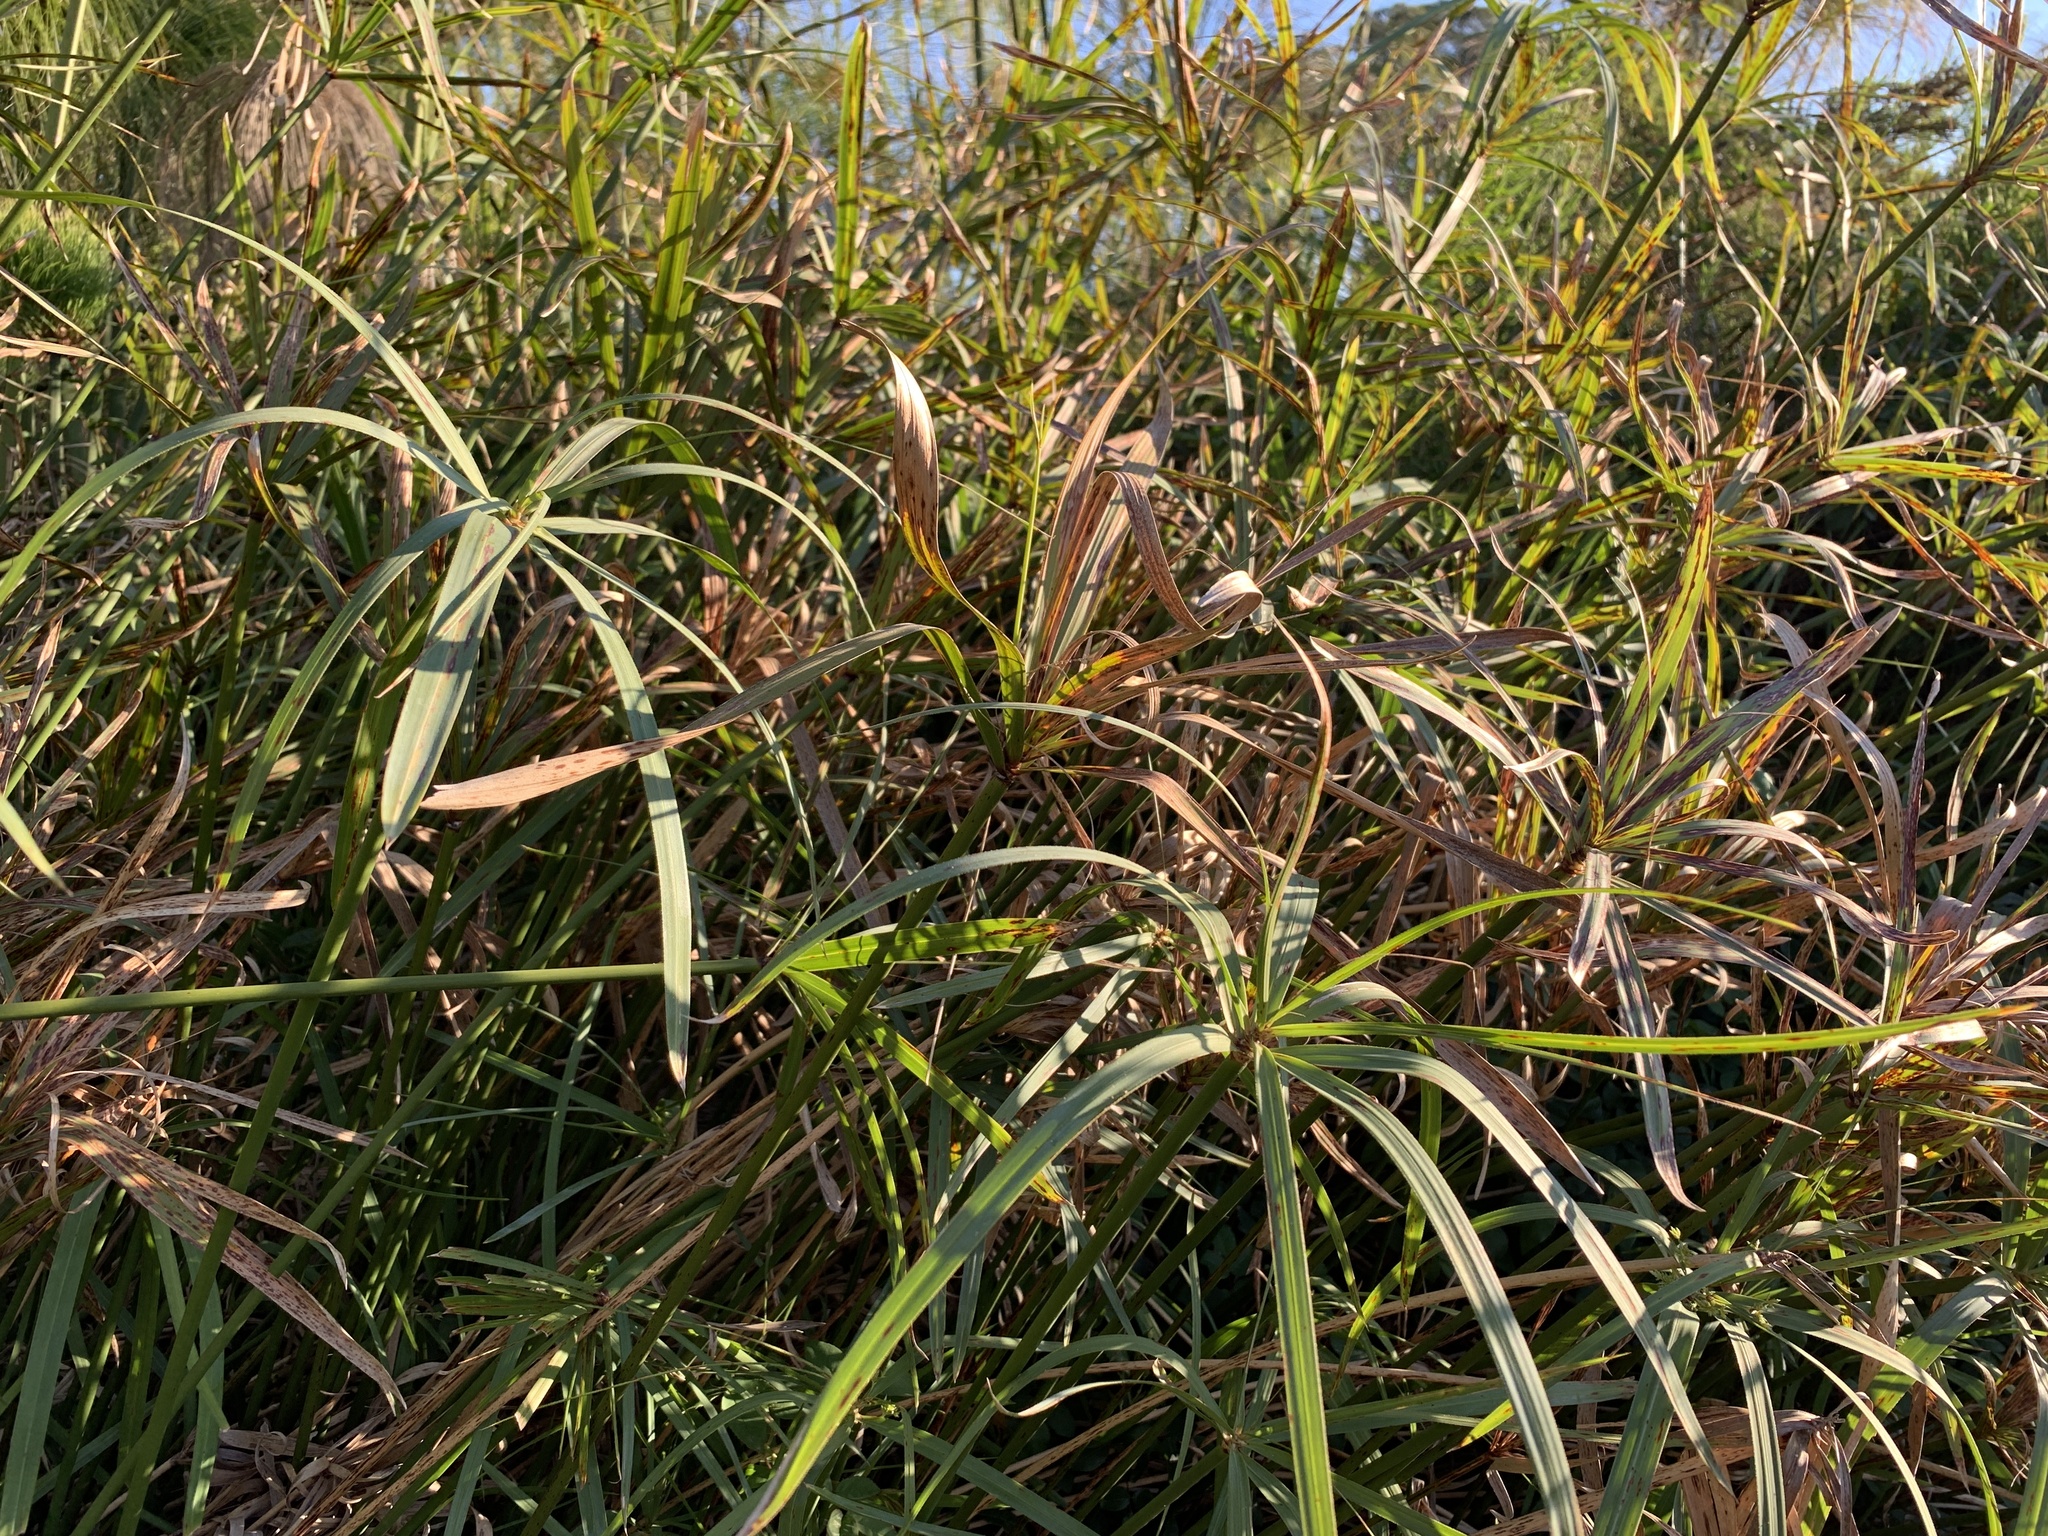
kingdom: Plantae
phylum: Tracheophyta
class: Liliopsida
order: Poales
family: Cyperaceae
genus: Cyperus
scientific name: Cyperus textilis
